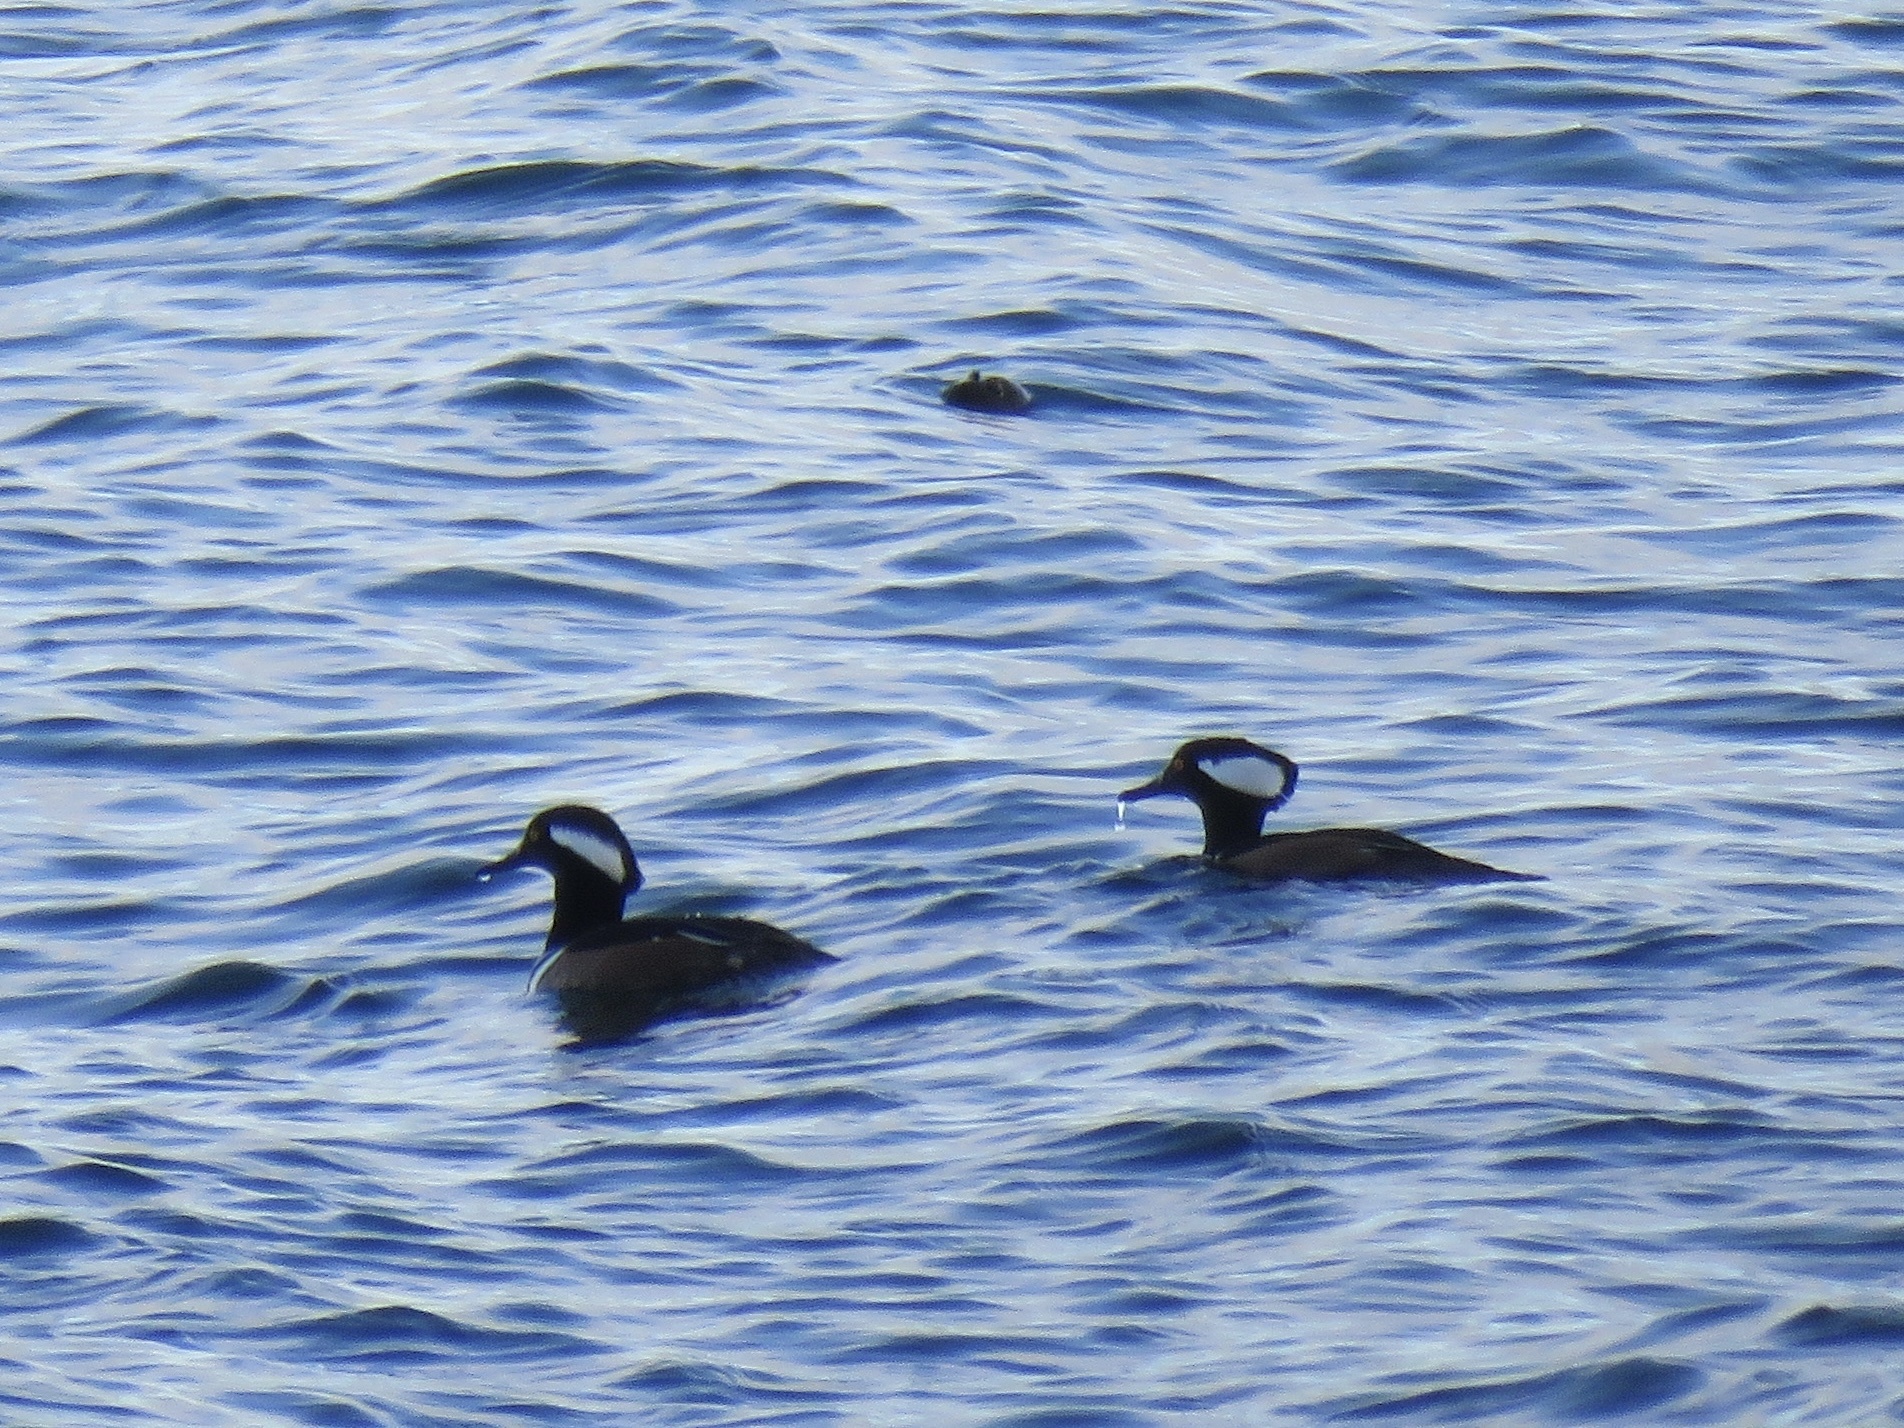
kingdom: Animalia
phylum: Chordata
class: Aves
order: Anseriformes
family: Anatidae
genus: Lophodytes
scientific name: Lophodytes cucullatus
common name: Hooded merganser
